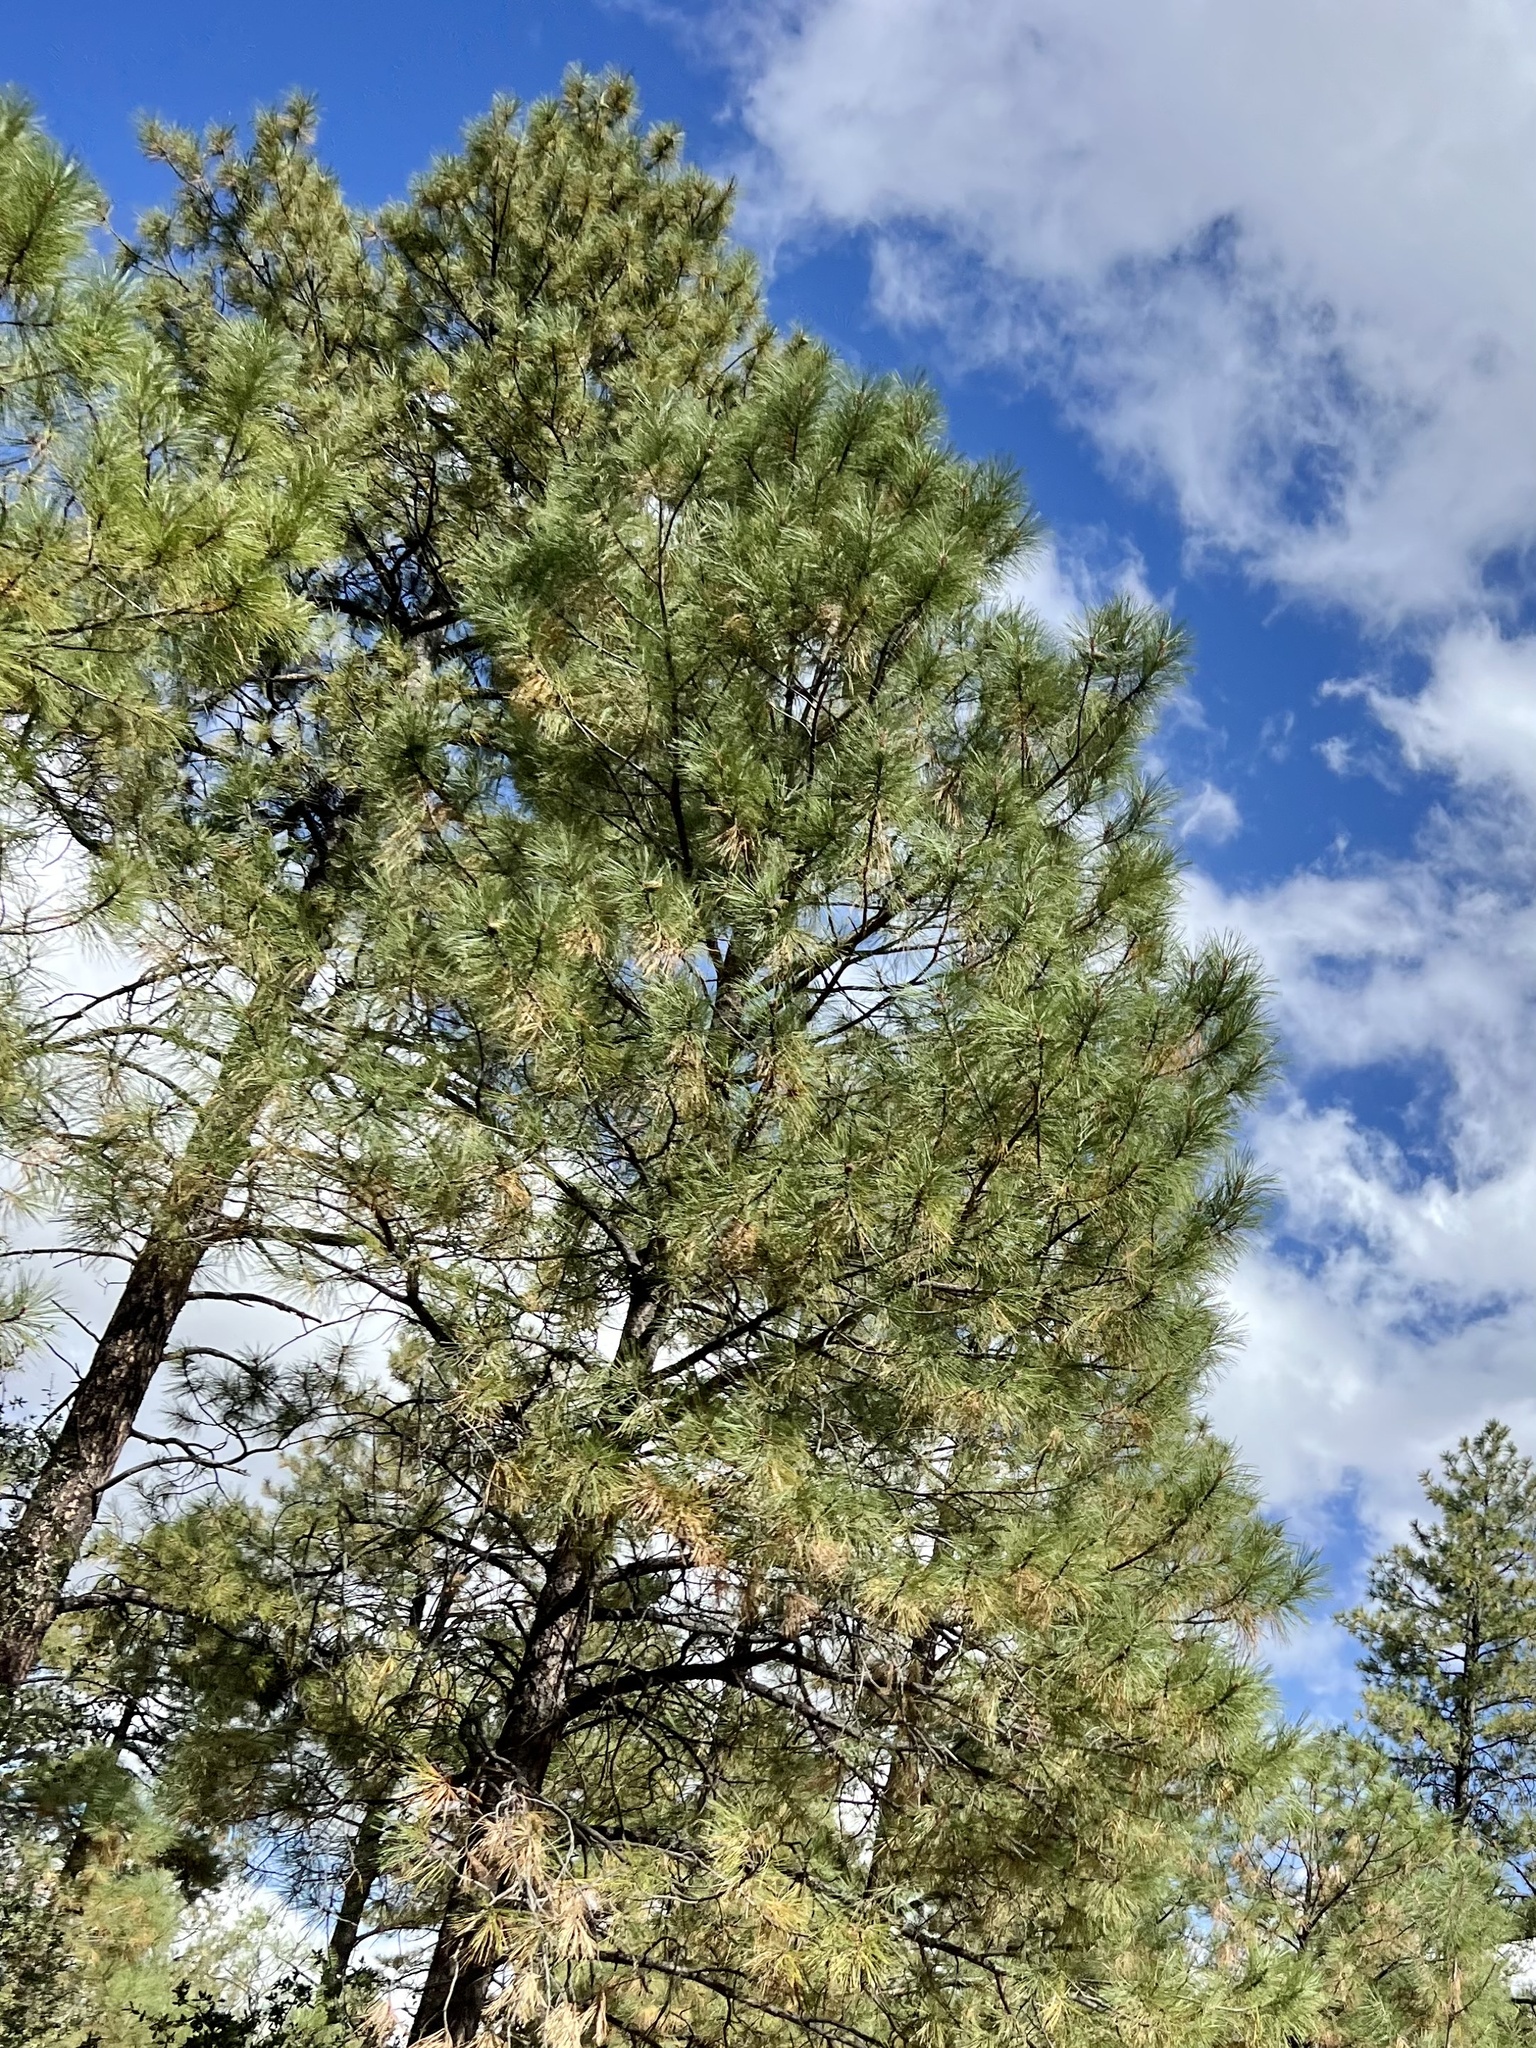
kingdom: Plantae
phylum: Tracheophyta
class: Pinopsida
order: Pinales
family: Pinaceae
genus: Pinus
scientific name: Pinus ponderosa
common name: Western yellow-pine
